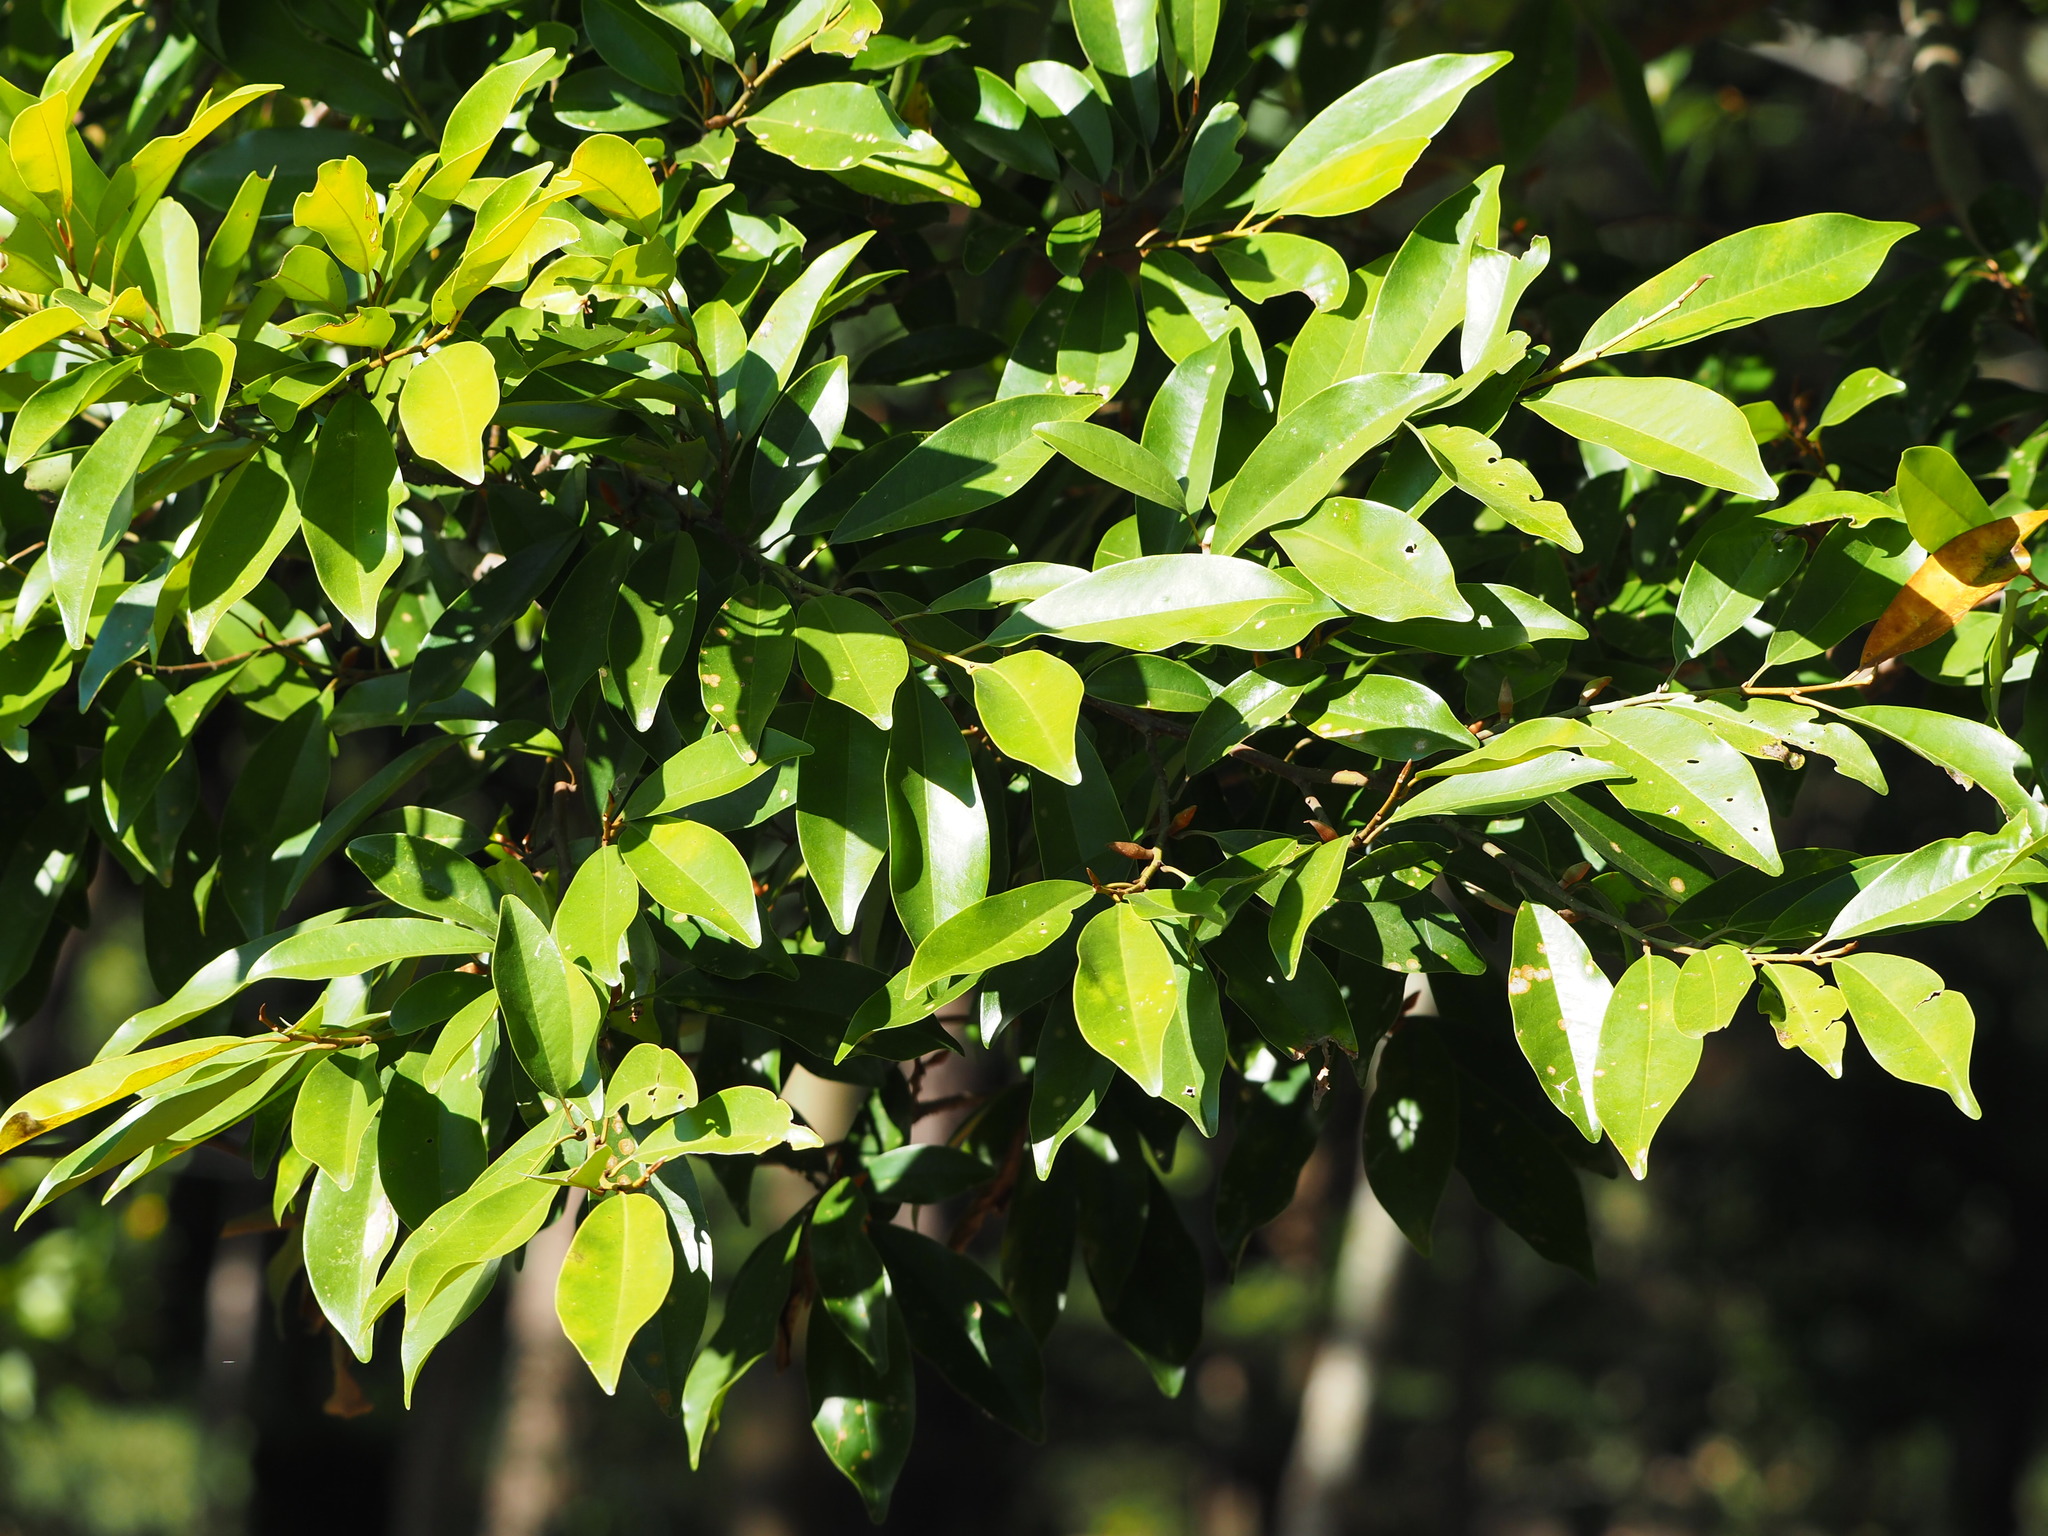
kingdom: Plantae
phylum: Tracheophyta
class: Magnoliopsida
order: Magnoliales
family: Magnoliaceae
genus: Magnolia
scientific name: Magnolia compressa
